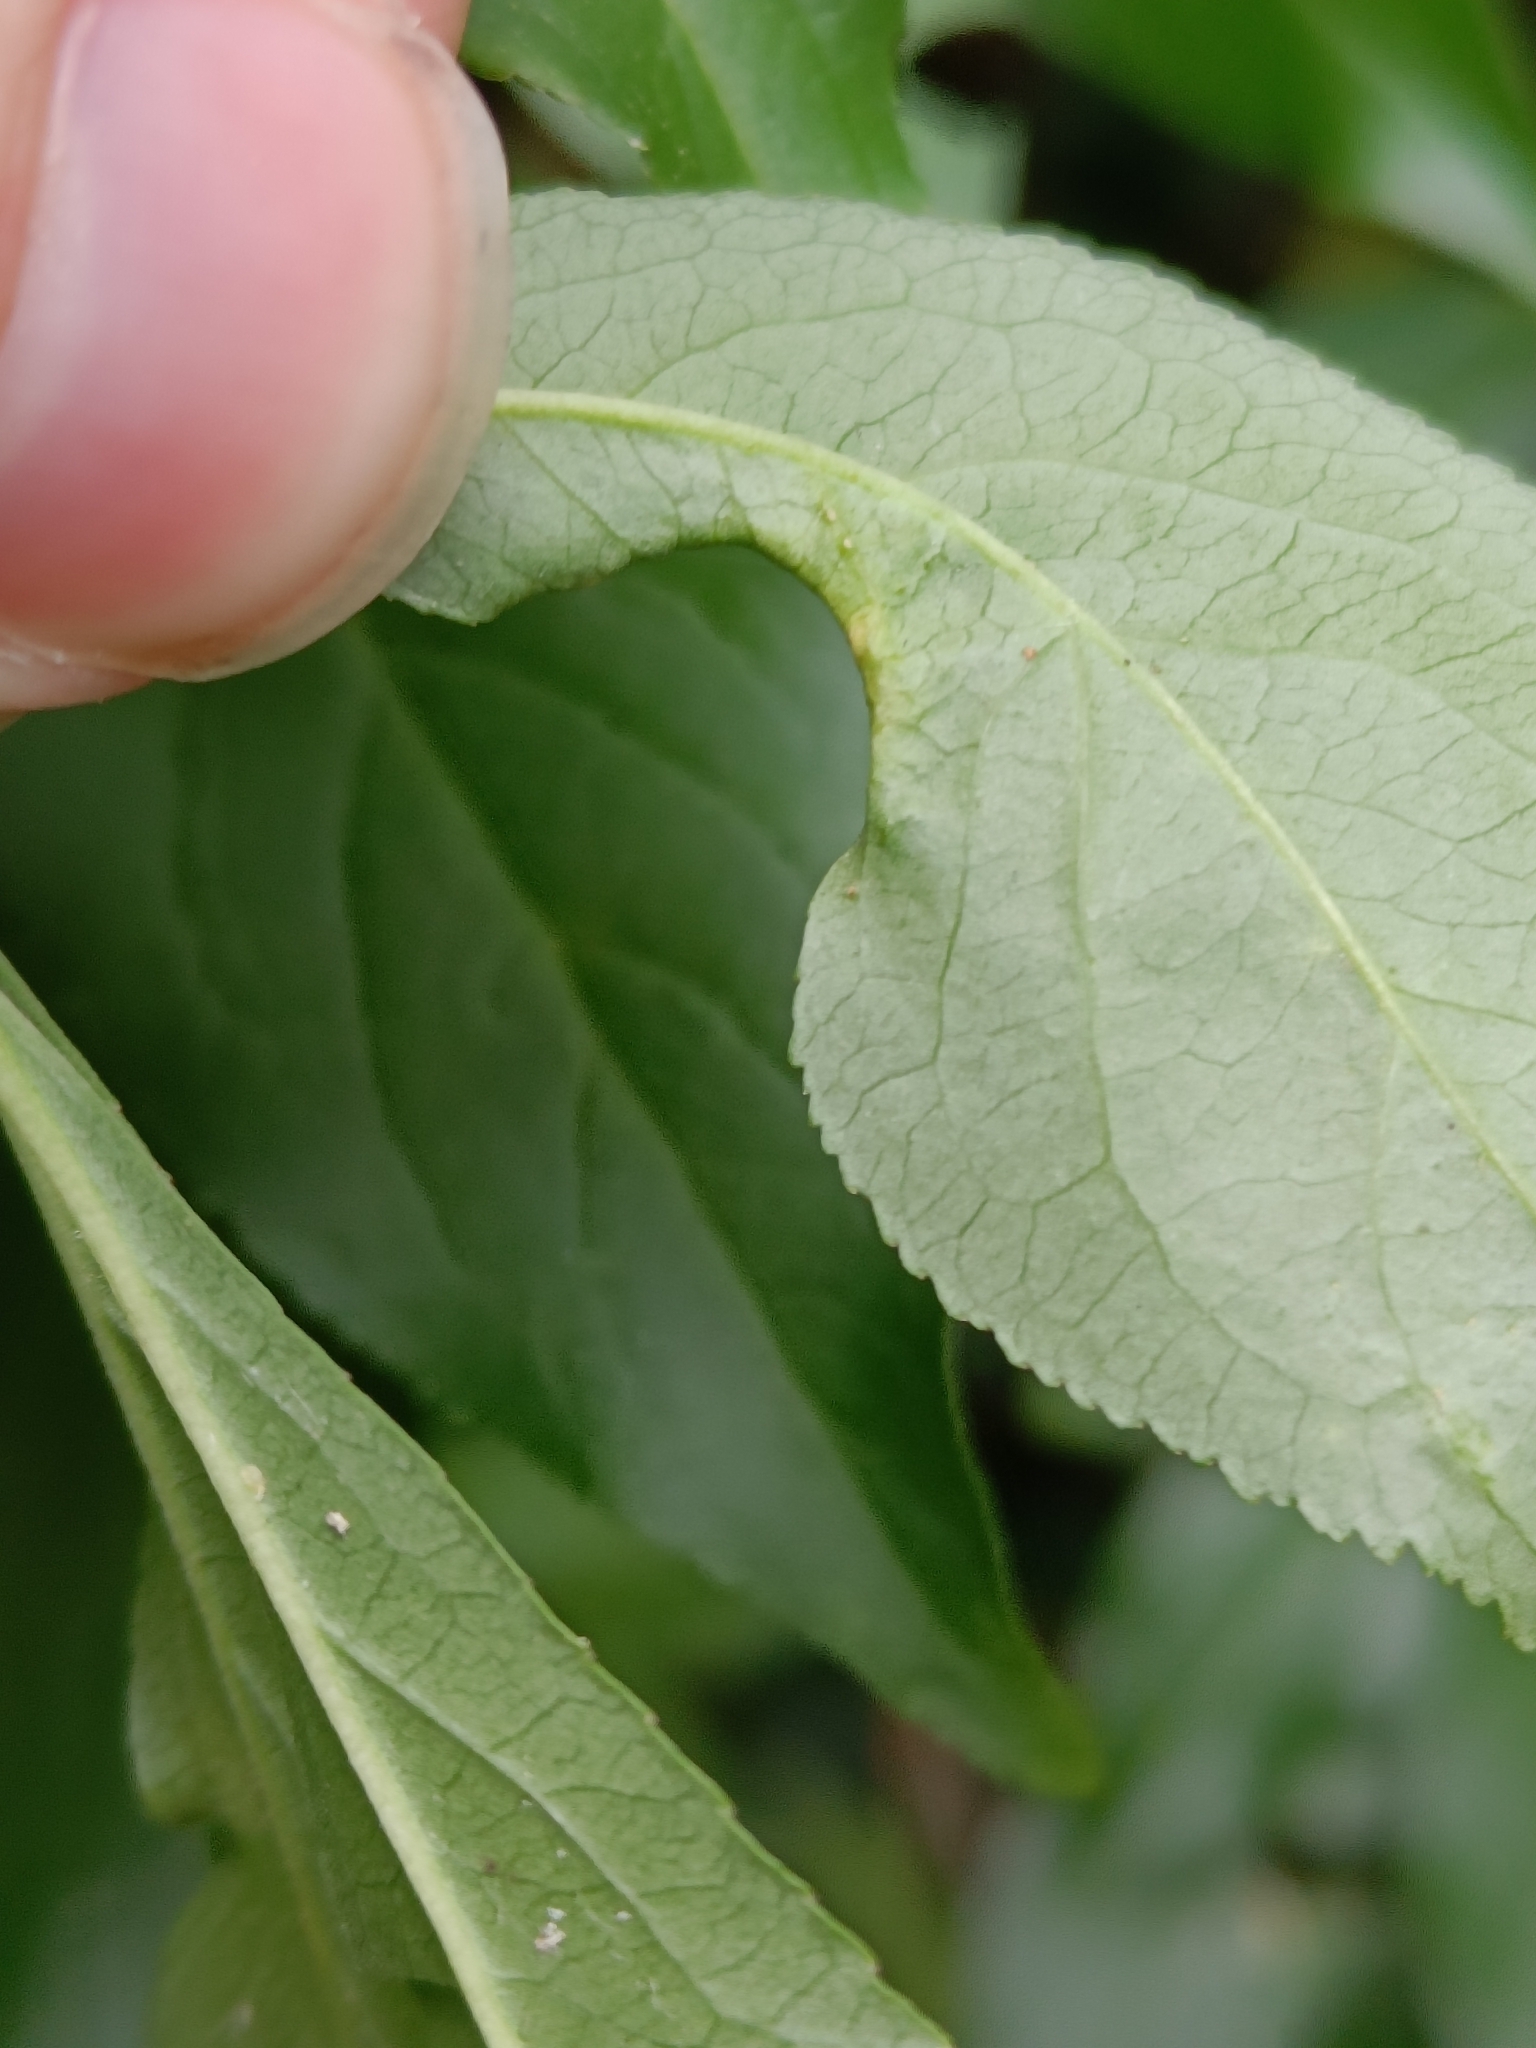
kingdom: Animalia
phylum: Arthropoda
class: Arachnida
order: Trombidiformes
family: Eriophyidae
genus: Stenacis
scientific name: Stenacis evonymi
